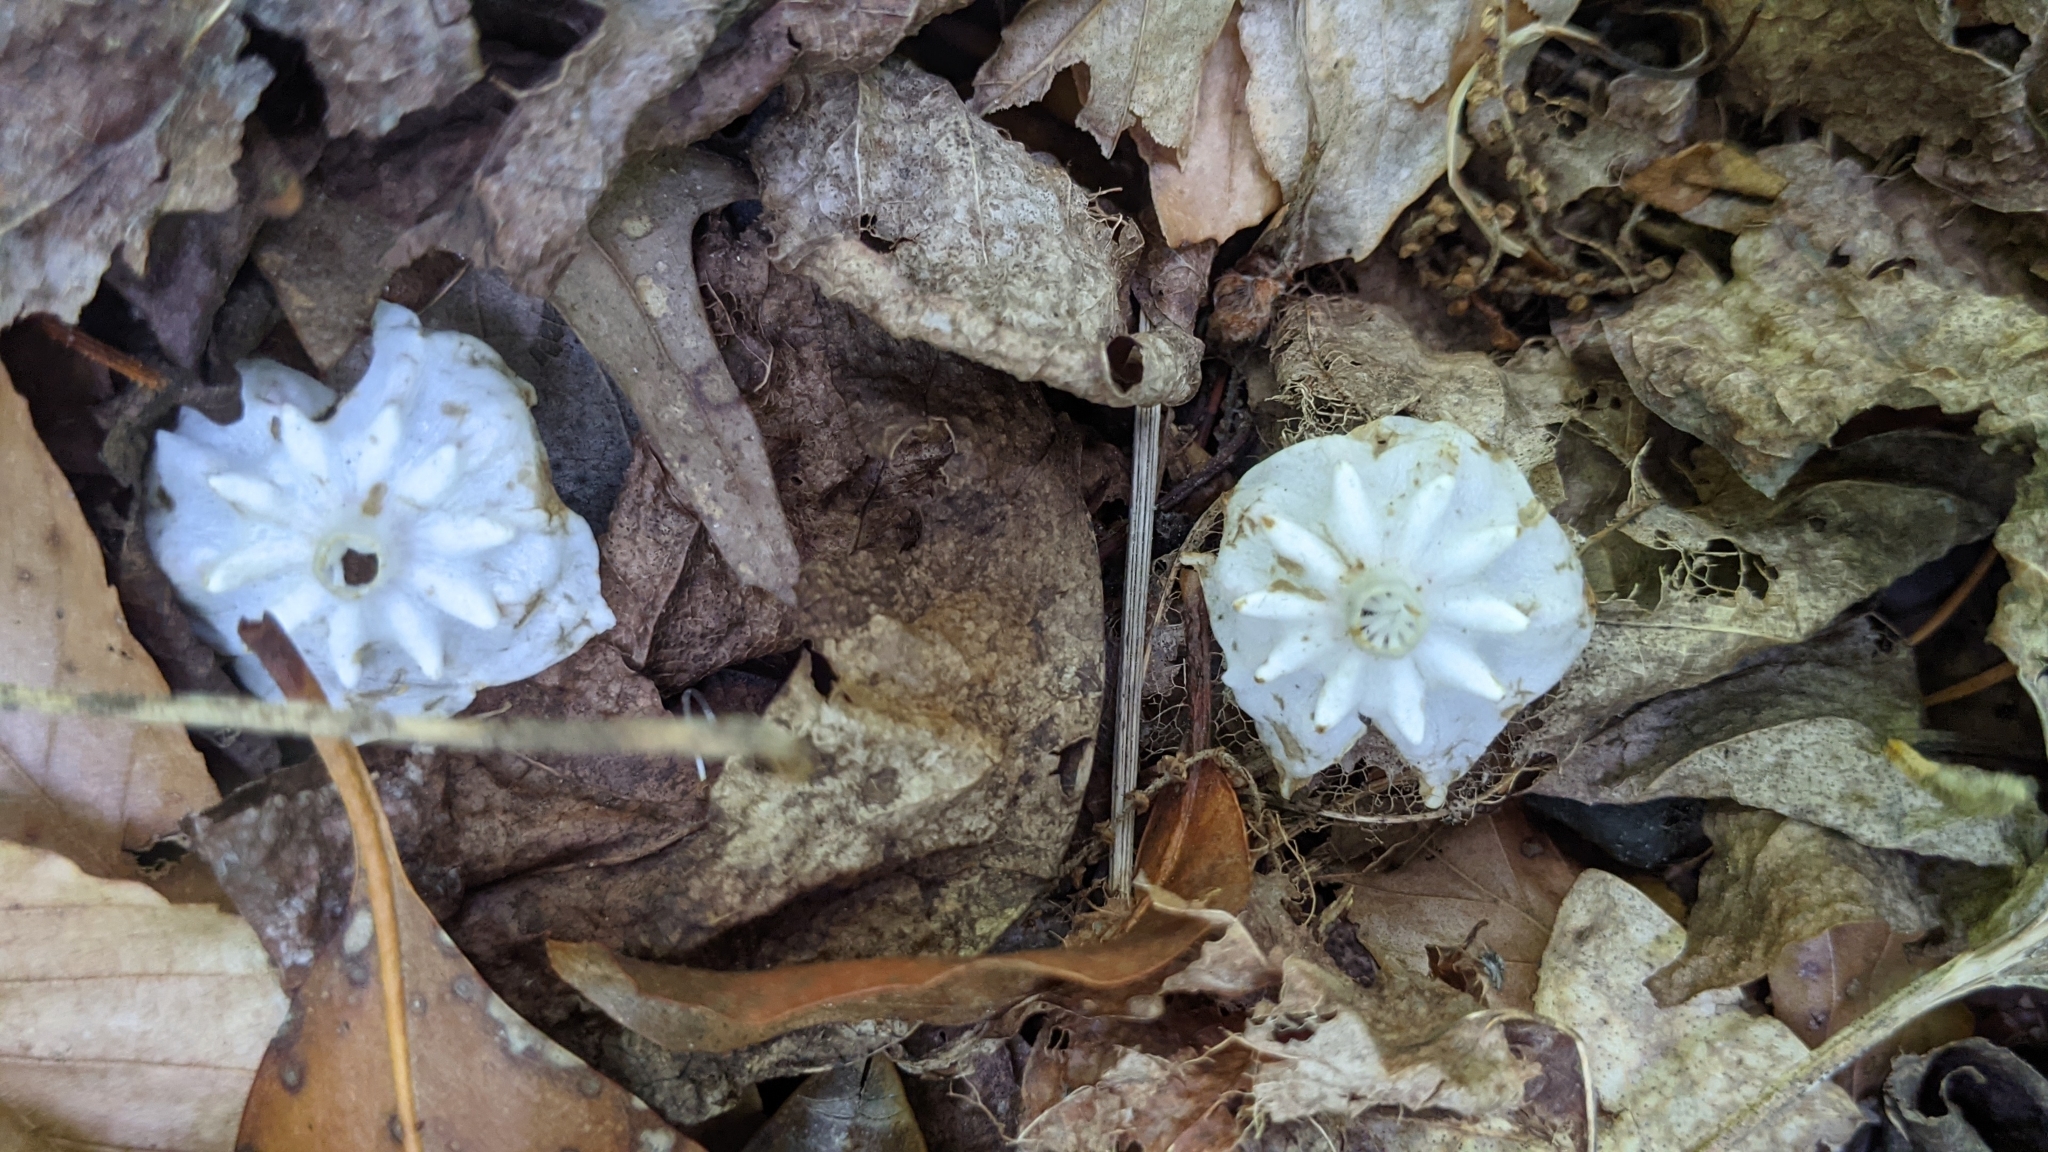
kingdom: Plantae
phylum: Tracheophyta
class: Magnoliopsida
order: Ericales
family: Ericaceae
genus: Kalmia
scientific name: Kalmia latifolia
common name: Mountain-laurel
